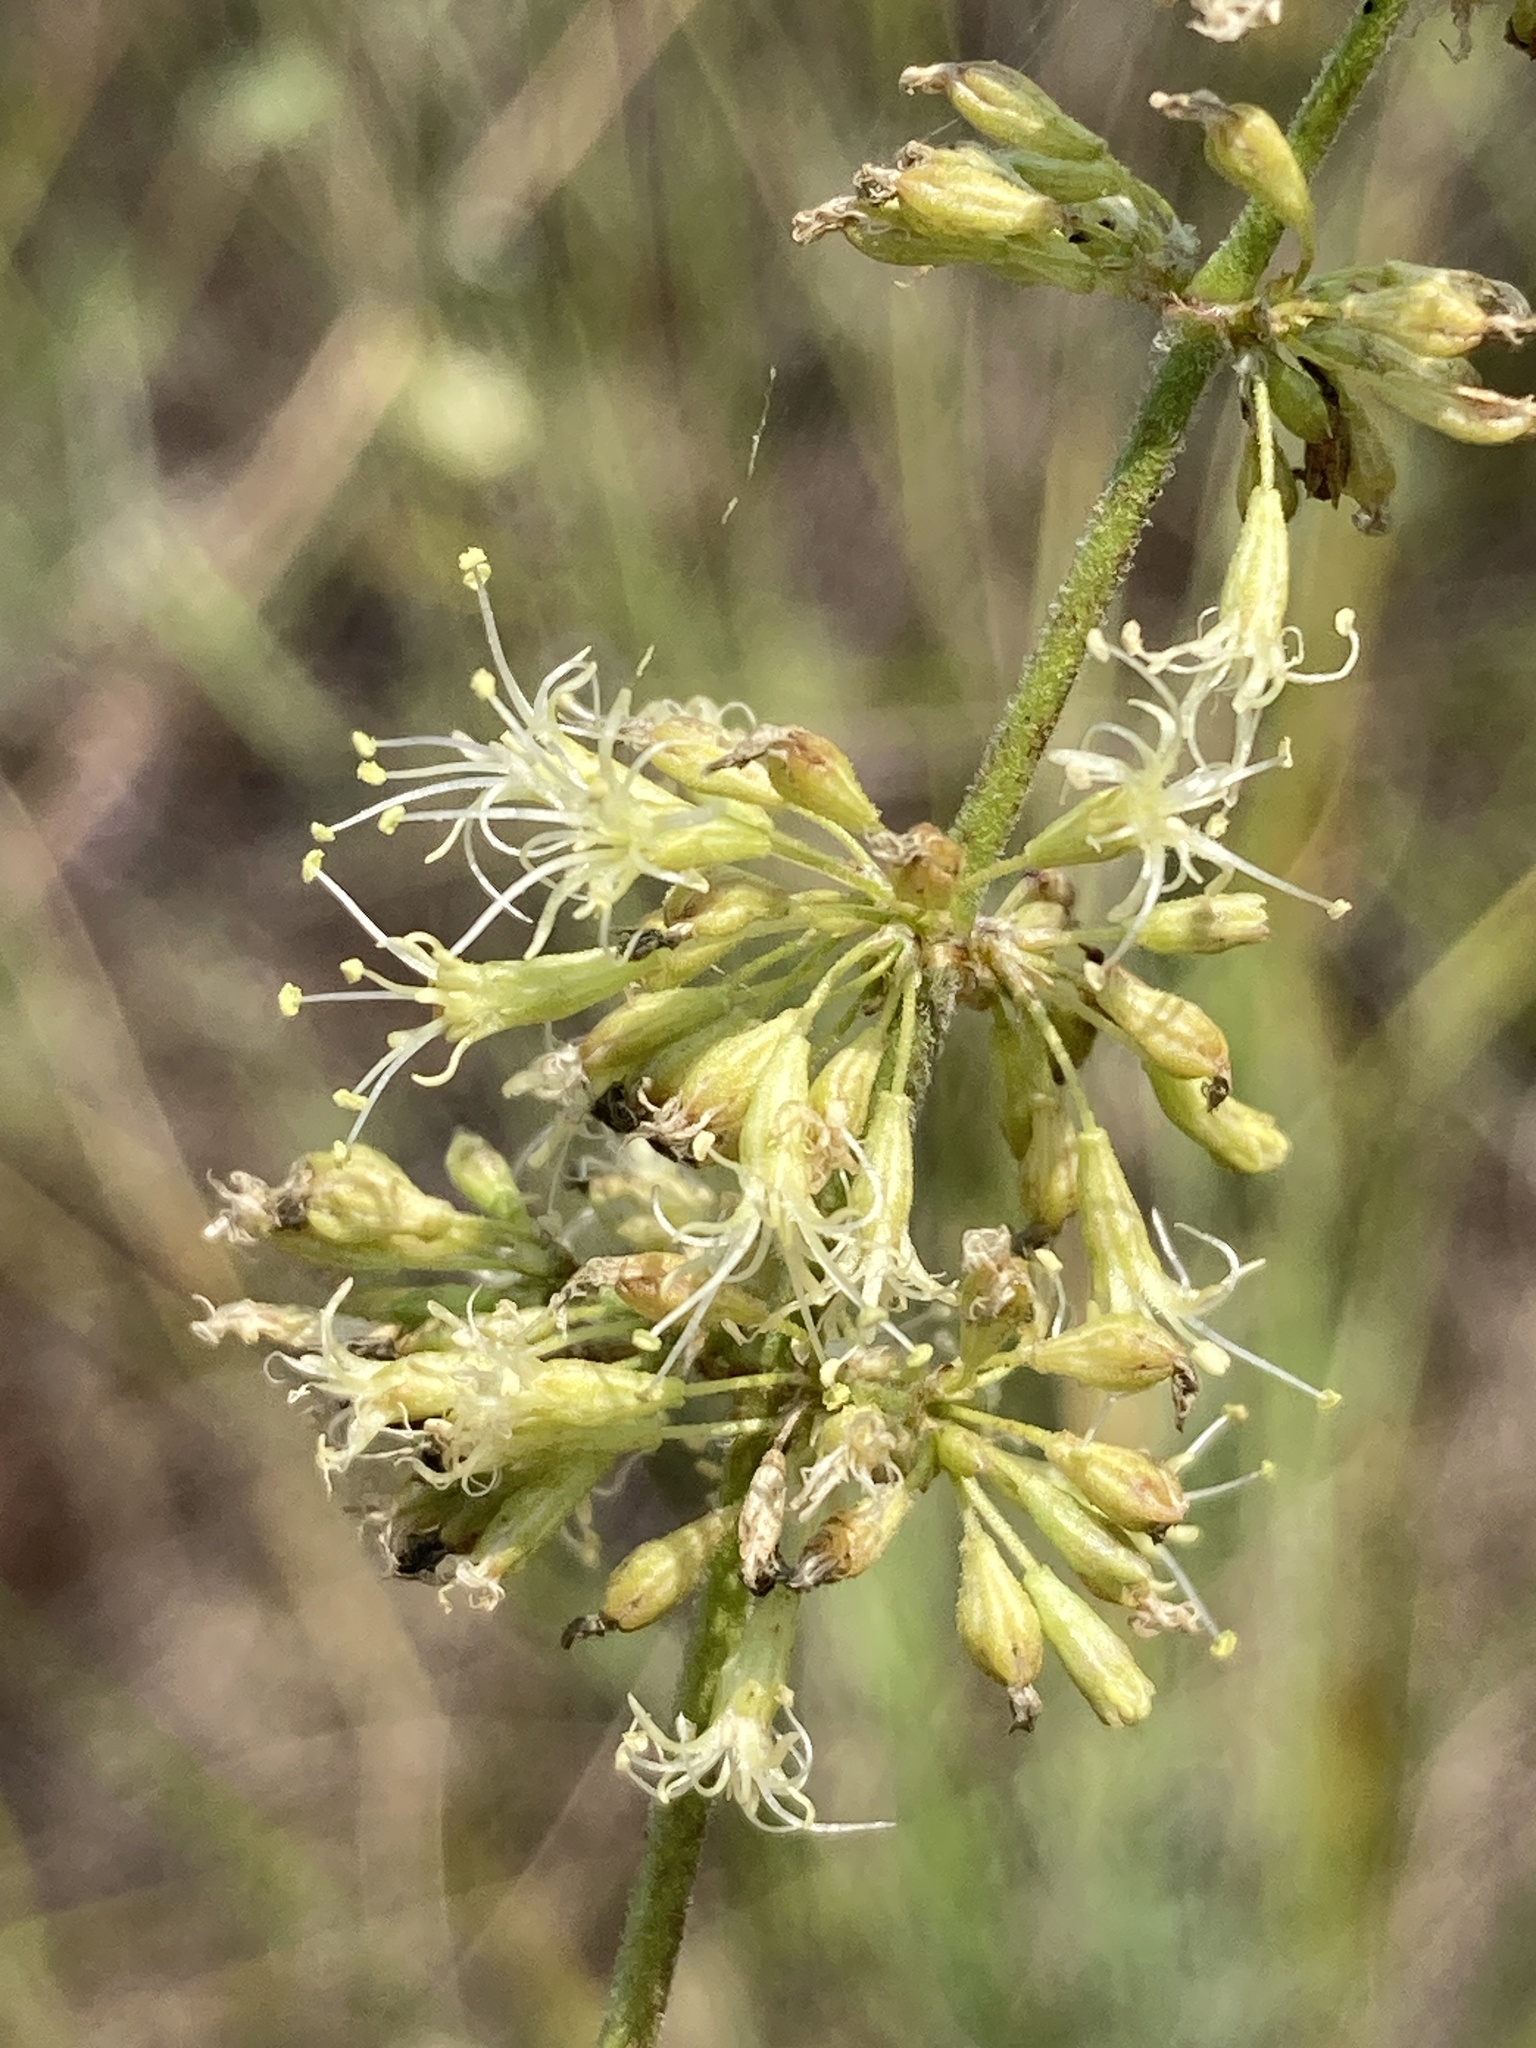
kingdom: Plantae
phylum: Tracheophyta
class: Magnoliopsida
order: Caryophyllales
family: Caryophyllaceae
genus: Silene
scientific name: Silene borysthenica
